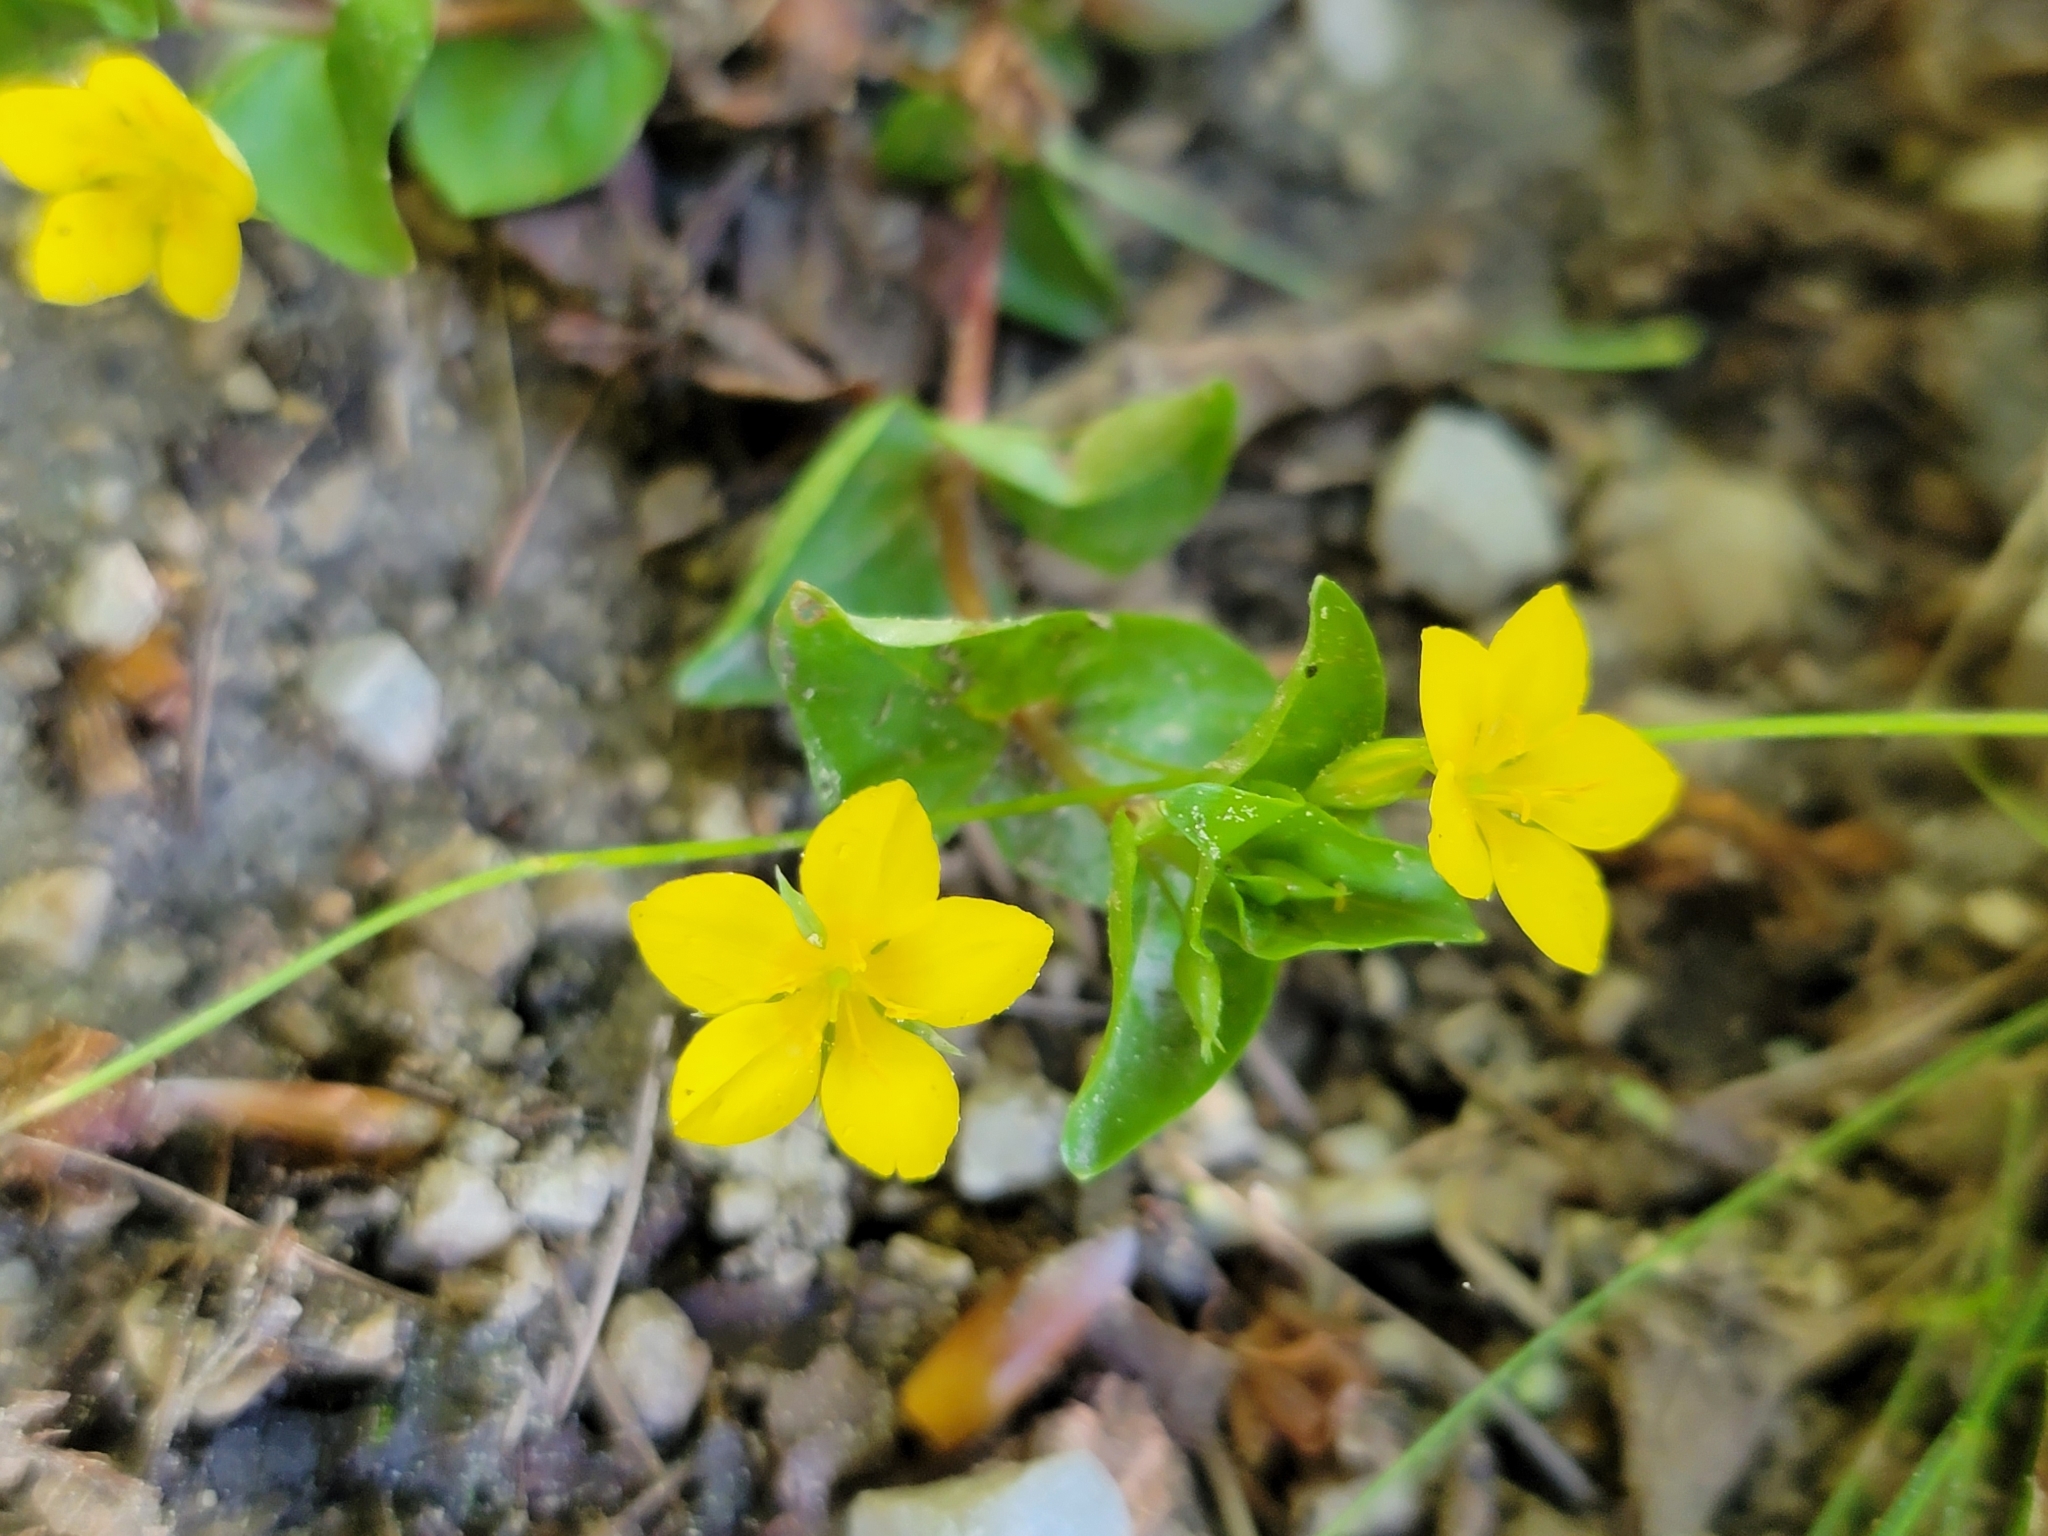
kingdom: Plantae
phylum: Tracheophyta
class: Magnoliopsida
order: Ericales
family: Primulaceae
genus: Lysimachia
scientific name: Lysimachia nemorum
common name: Yellow pimpernel
